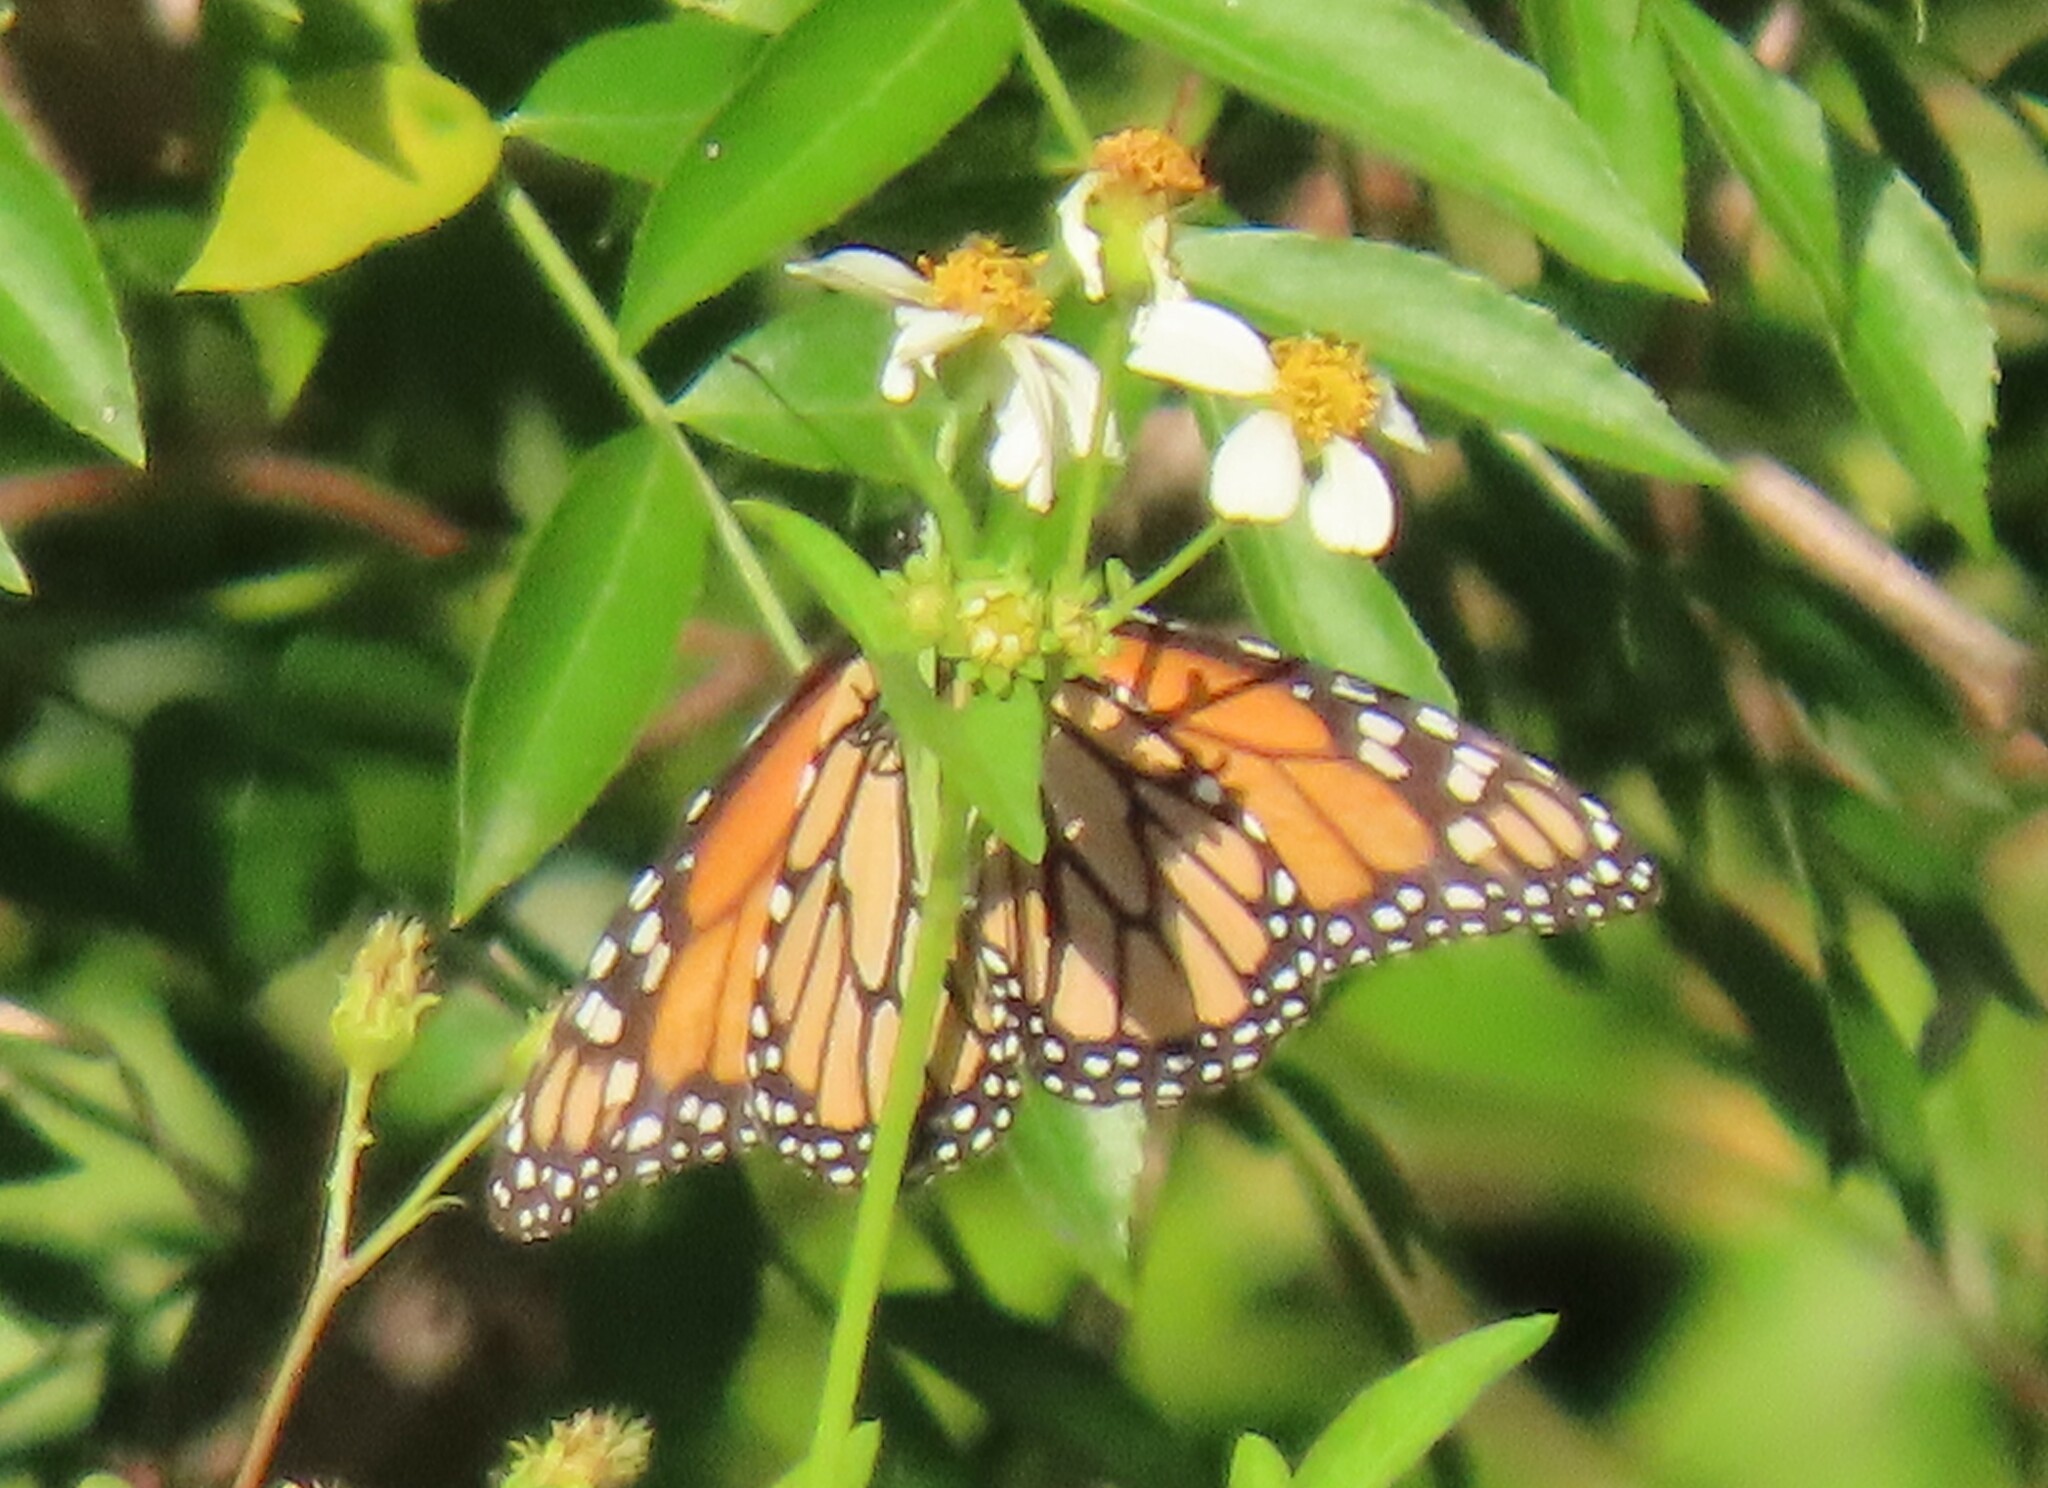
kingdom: Animalia
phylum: Arthropoda
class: Insecta
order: Lepidoptera
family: Nymphalidae
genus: Danaus
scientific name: Danaus plexippus
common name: Monarch
